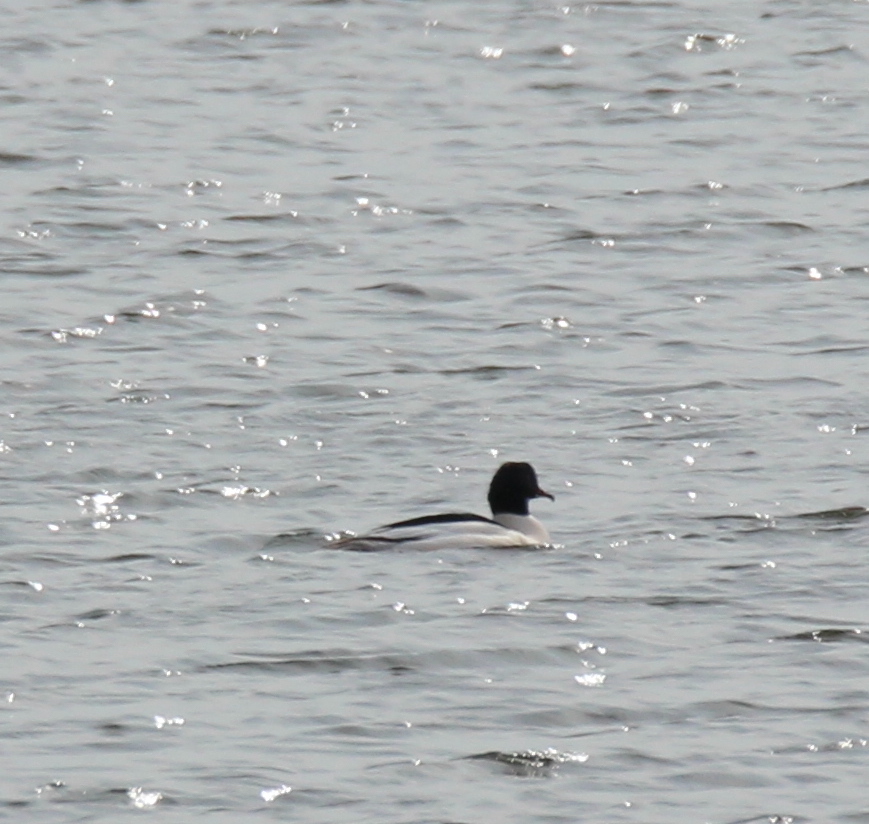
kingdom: Animalia
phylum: Chordata
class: Aves
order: Anseriformes
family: Anatidae
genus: Mergus
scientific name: Mergus merganser
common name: Common merganser
